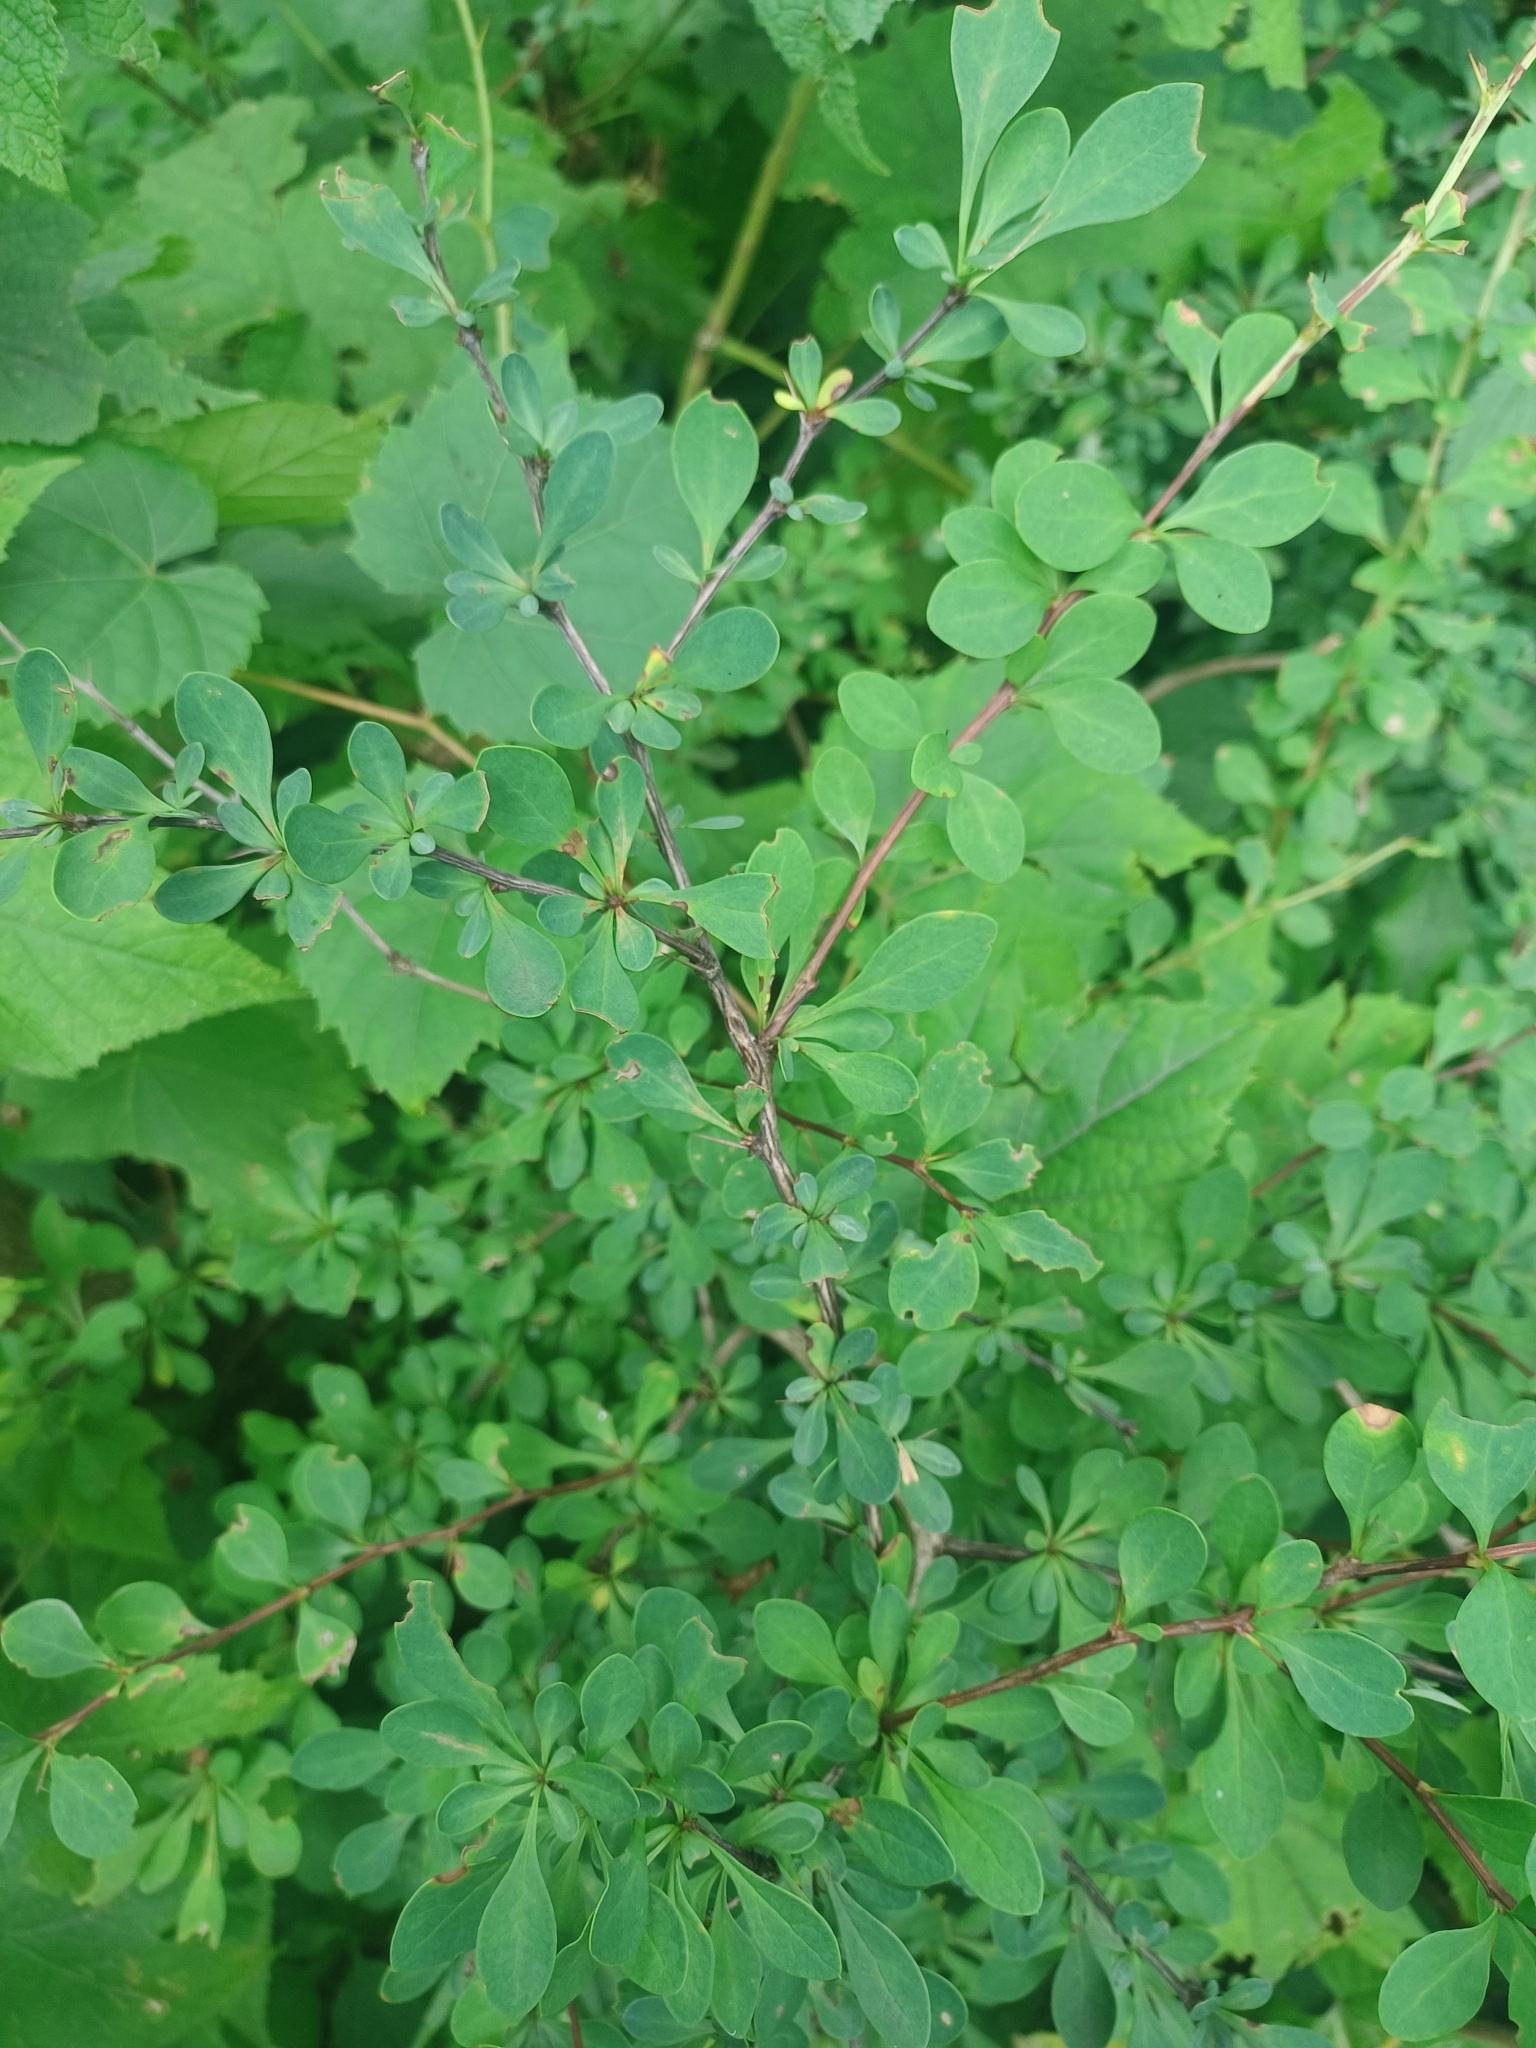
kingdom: Plantae
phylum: Tracheophyta
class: Magnoliopsida
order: Ranunculales
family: Berberidaceae
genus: Berberis
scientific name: Berberis thunbergii
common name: Japanese barberry
